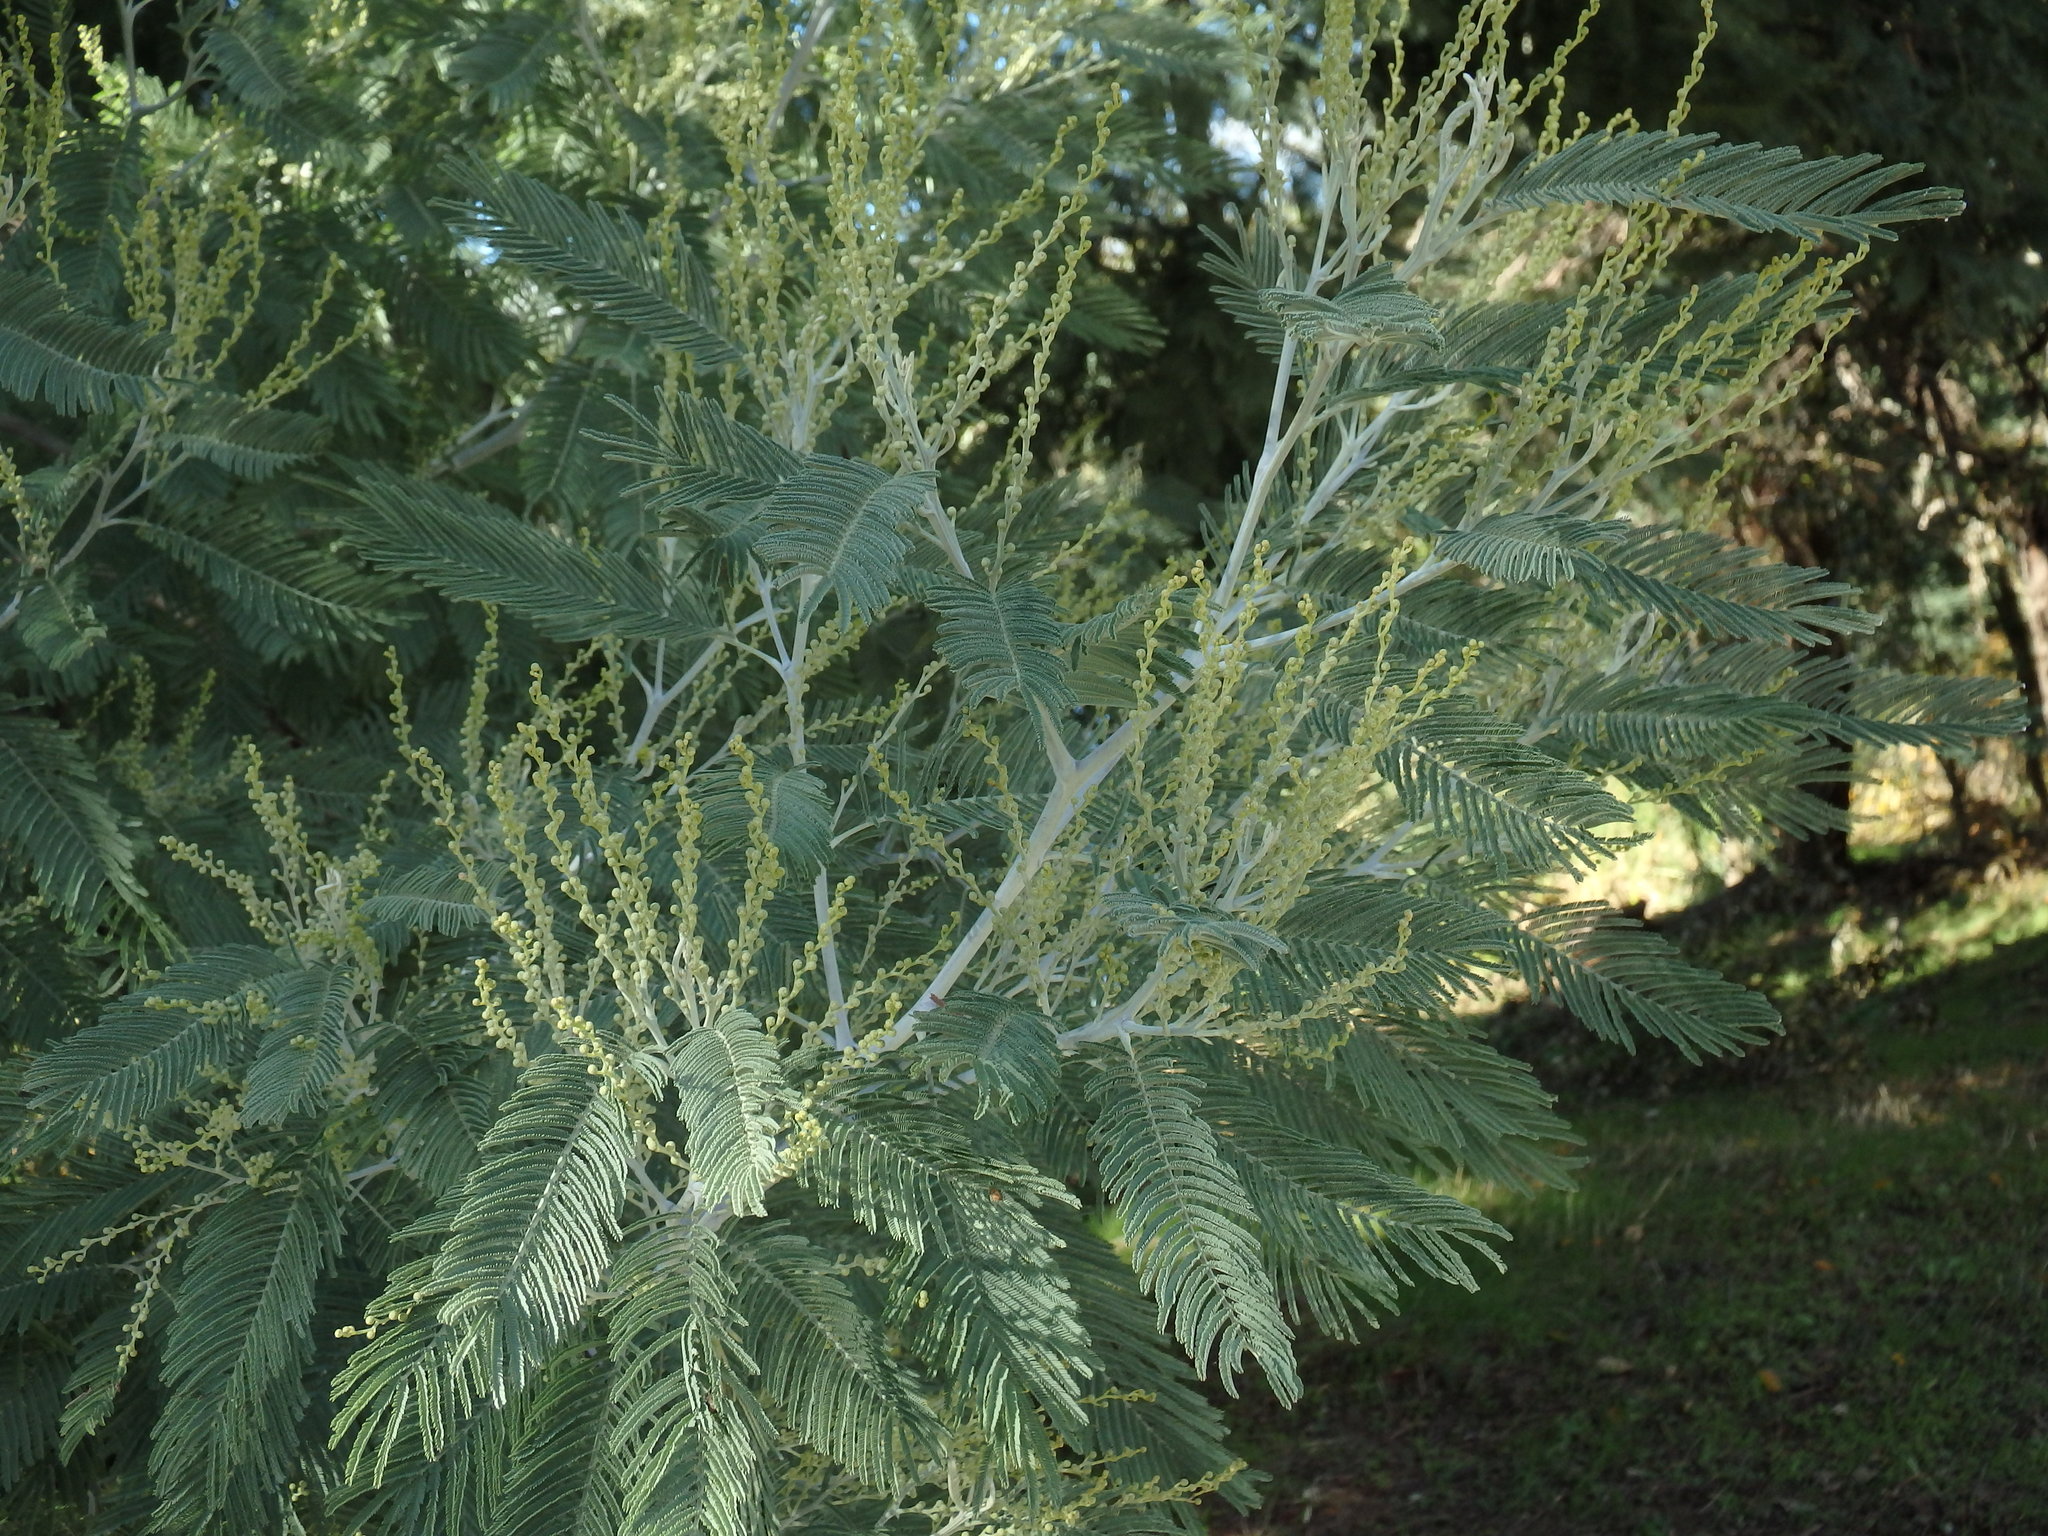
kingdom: Plantae
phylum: Tracheophyta
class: Magnoliopsida
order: Fabales
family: Fabaceae
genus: Acacia
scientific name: Acacia dealbata
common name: Silver wattle
